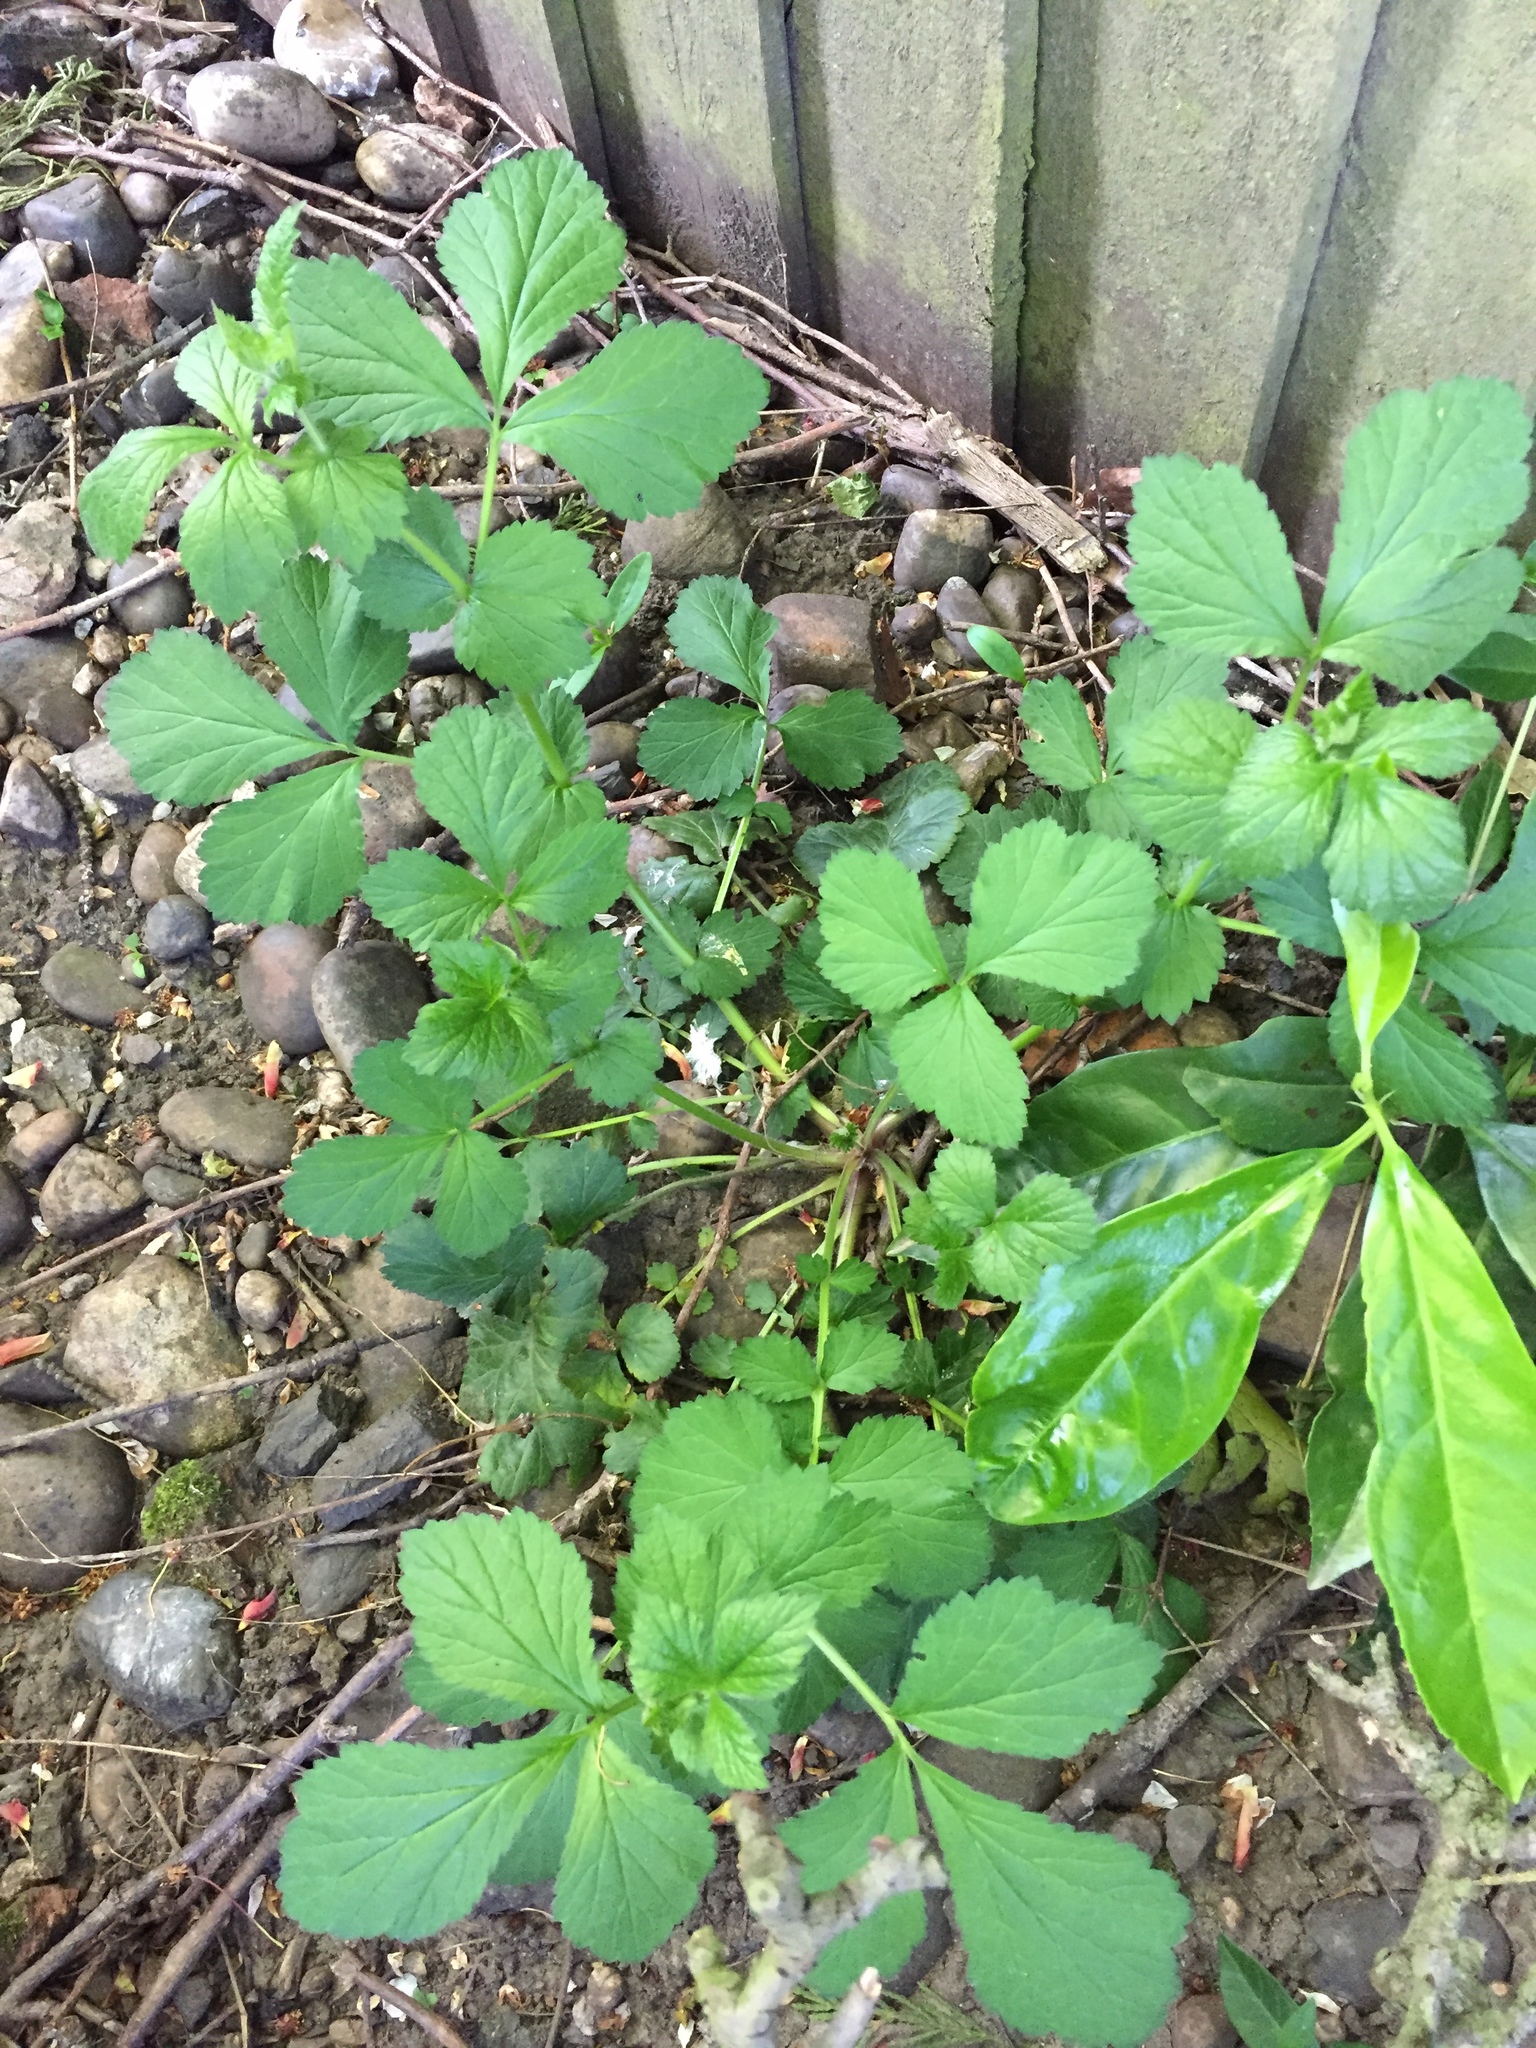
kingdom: Plantae
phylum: Tracheophyta
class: Magnoliopsida
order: Rosales
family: Rosaceae
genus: Geum
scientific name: Geum urbanum
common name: Wood avens
